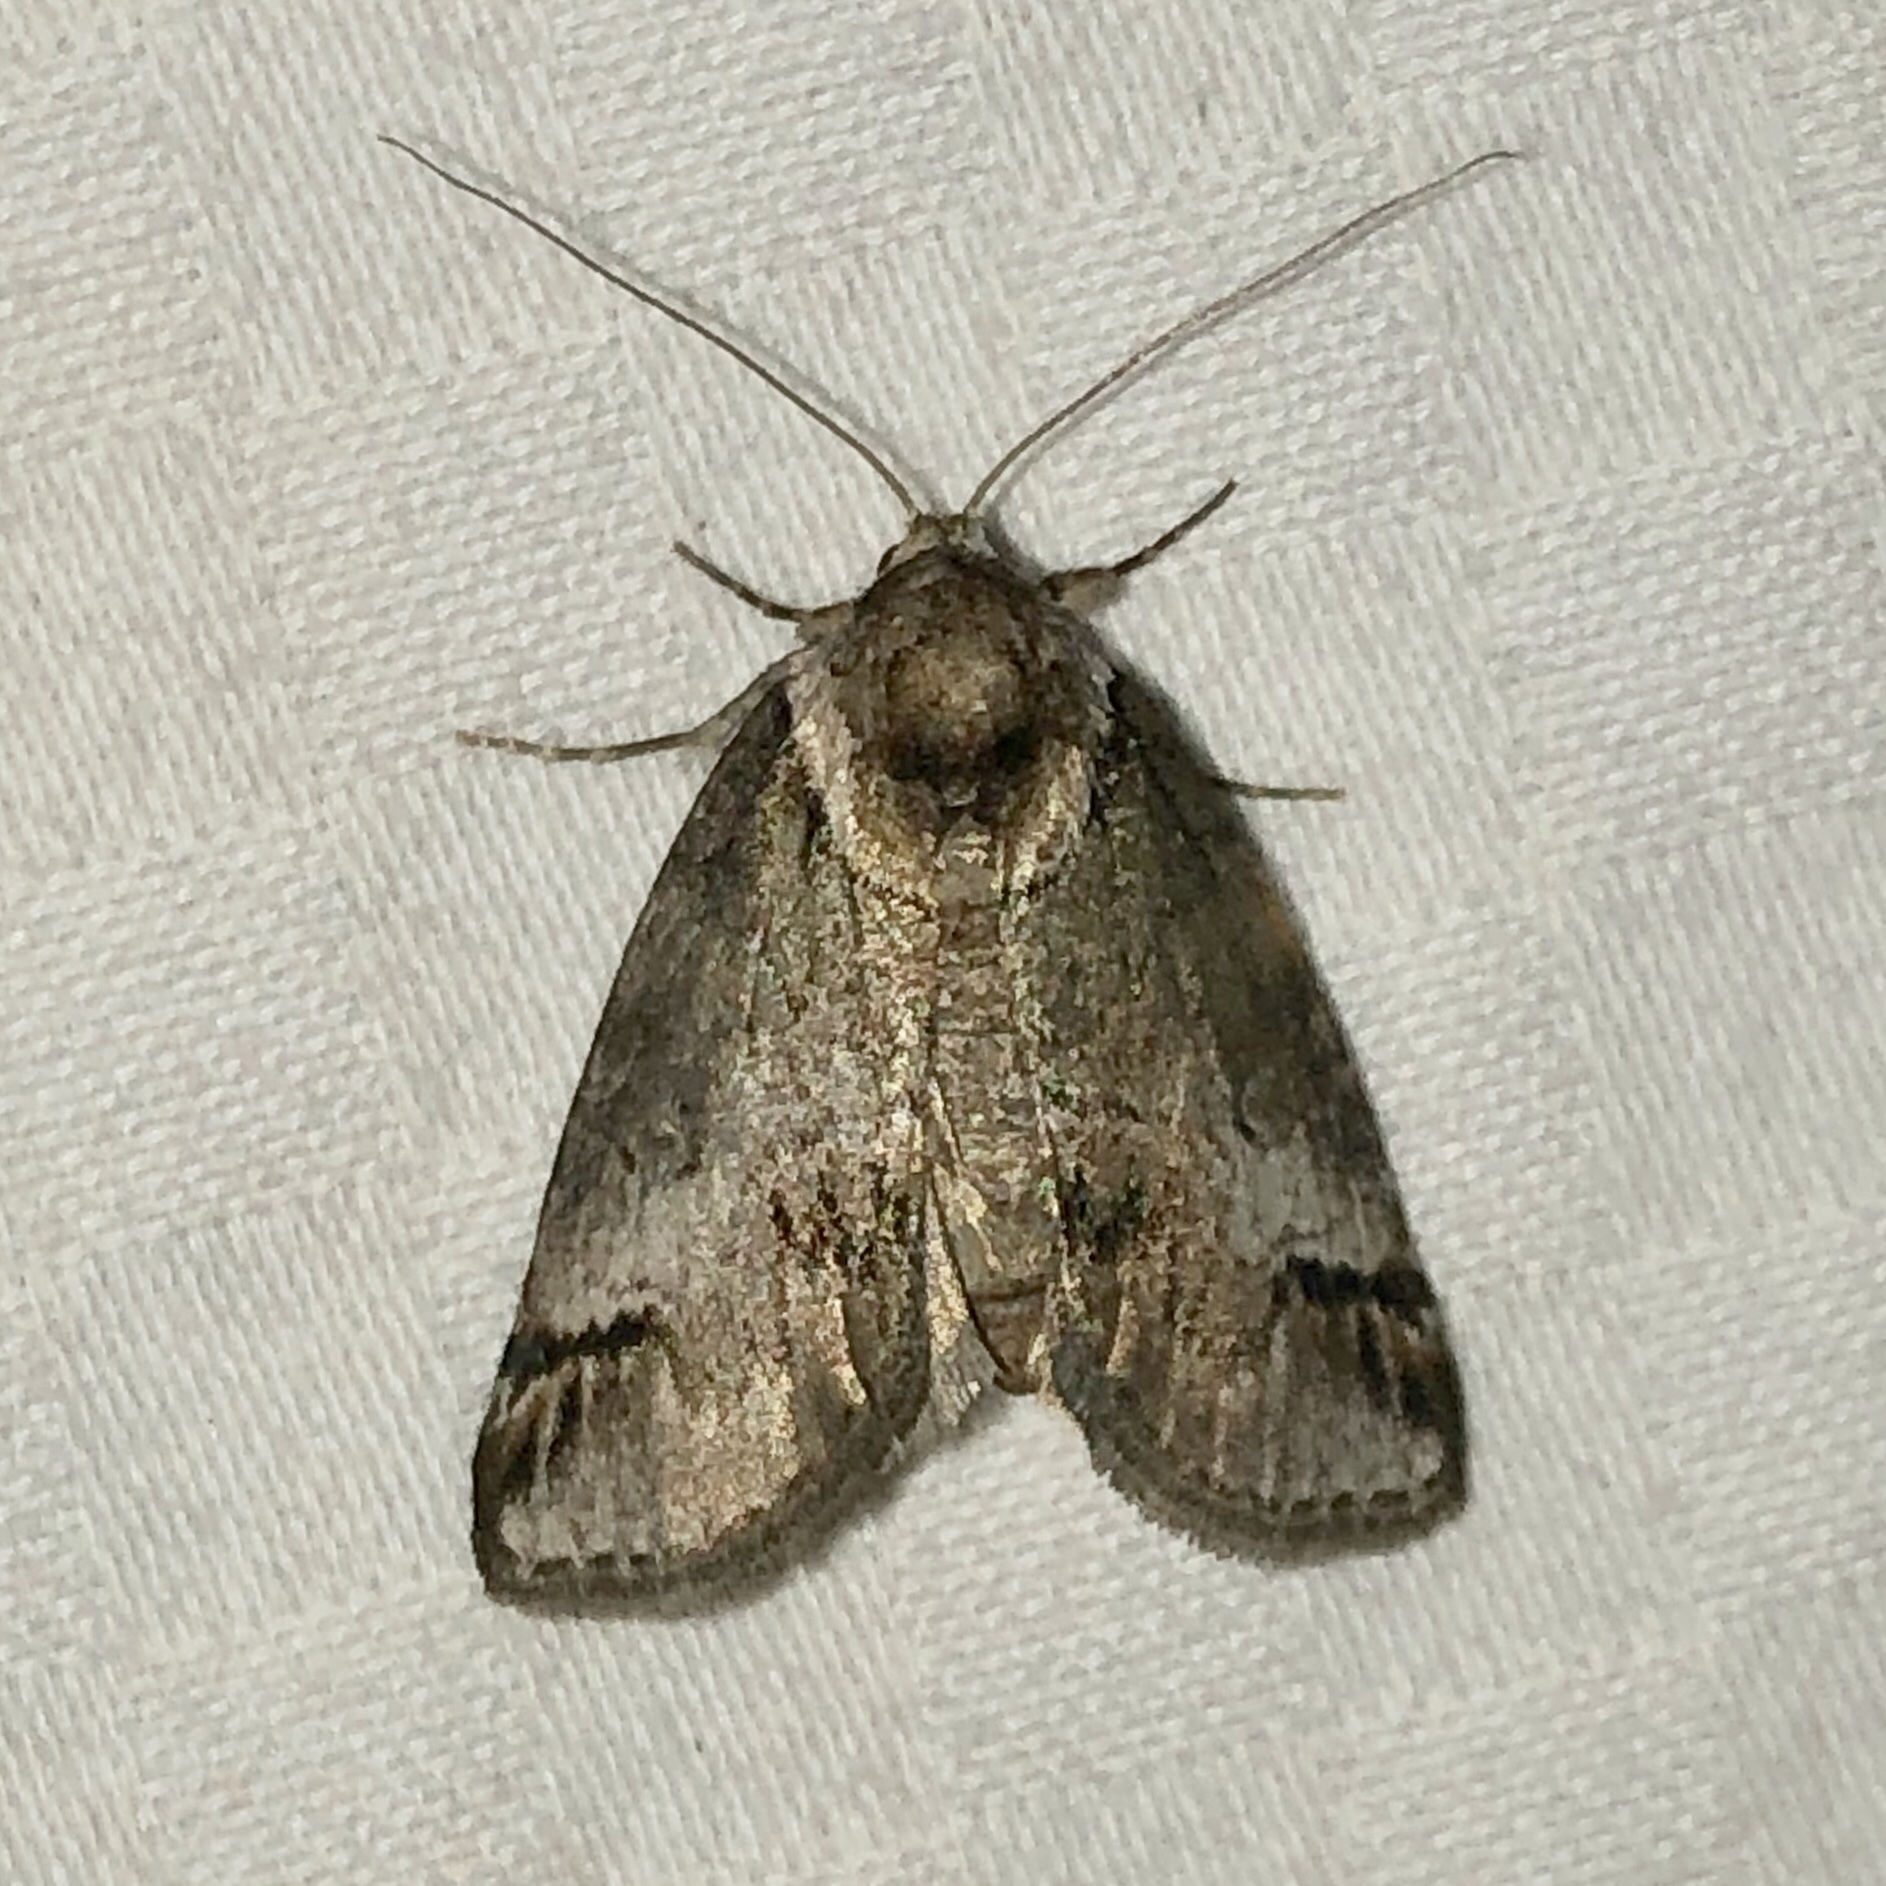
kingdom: Animalia
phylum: Arthropoda
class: Insecta
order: Lepidoptera
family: Nolidae
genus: Baileya
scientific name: Baileya australis
